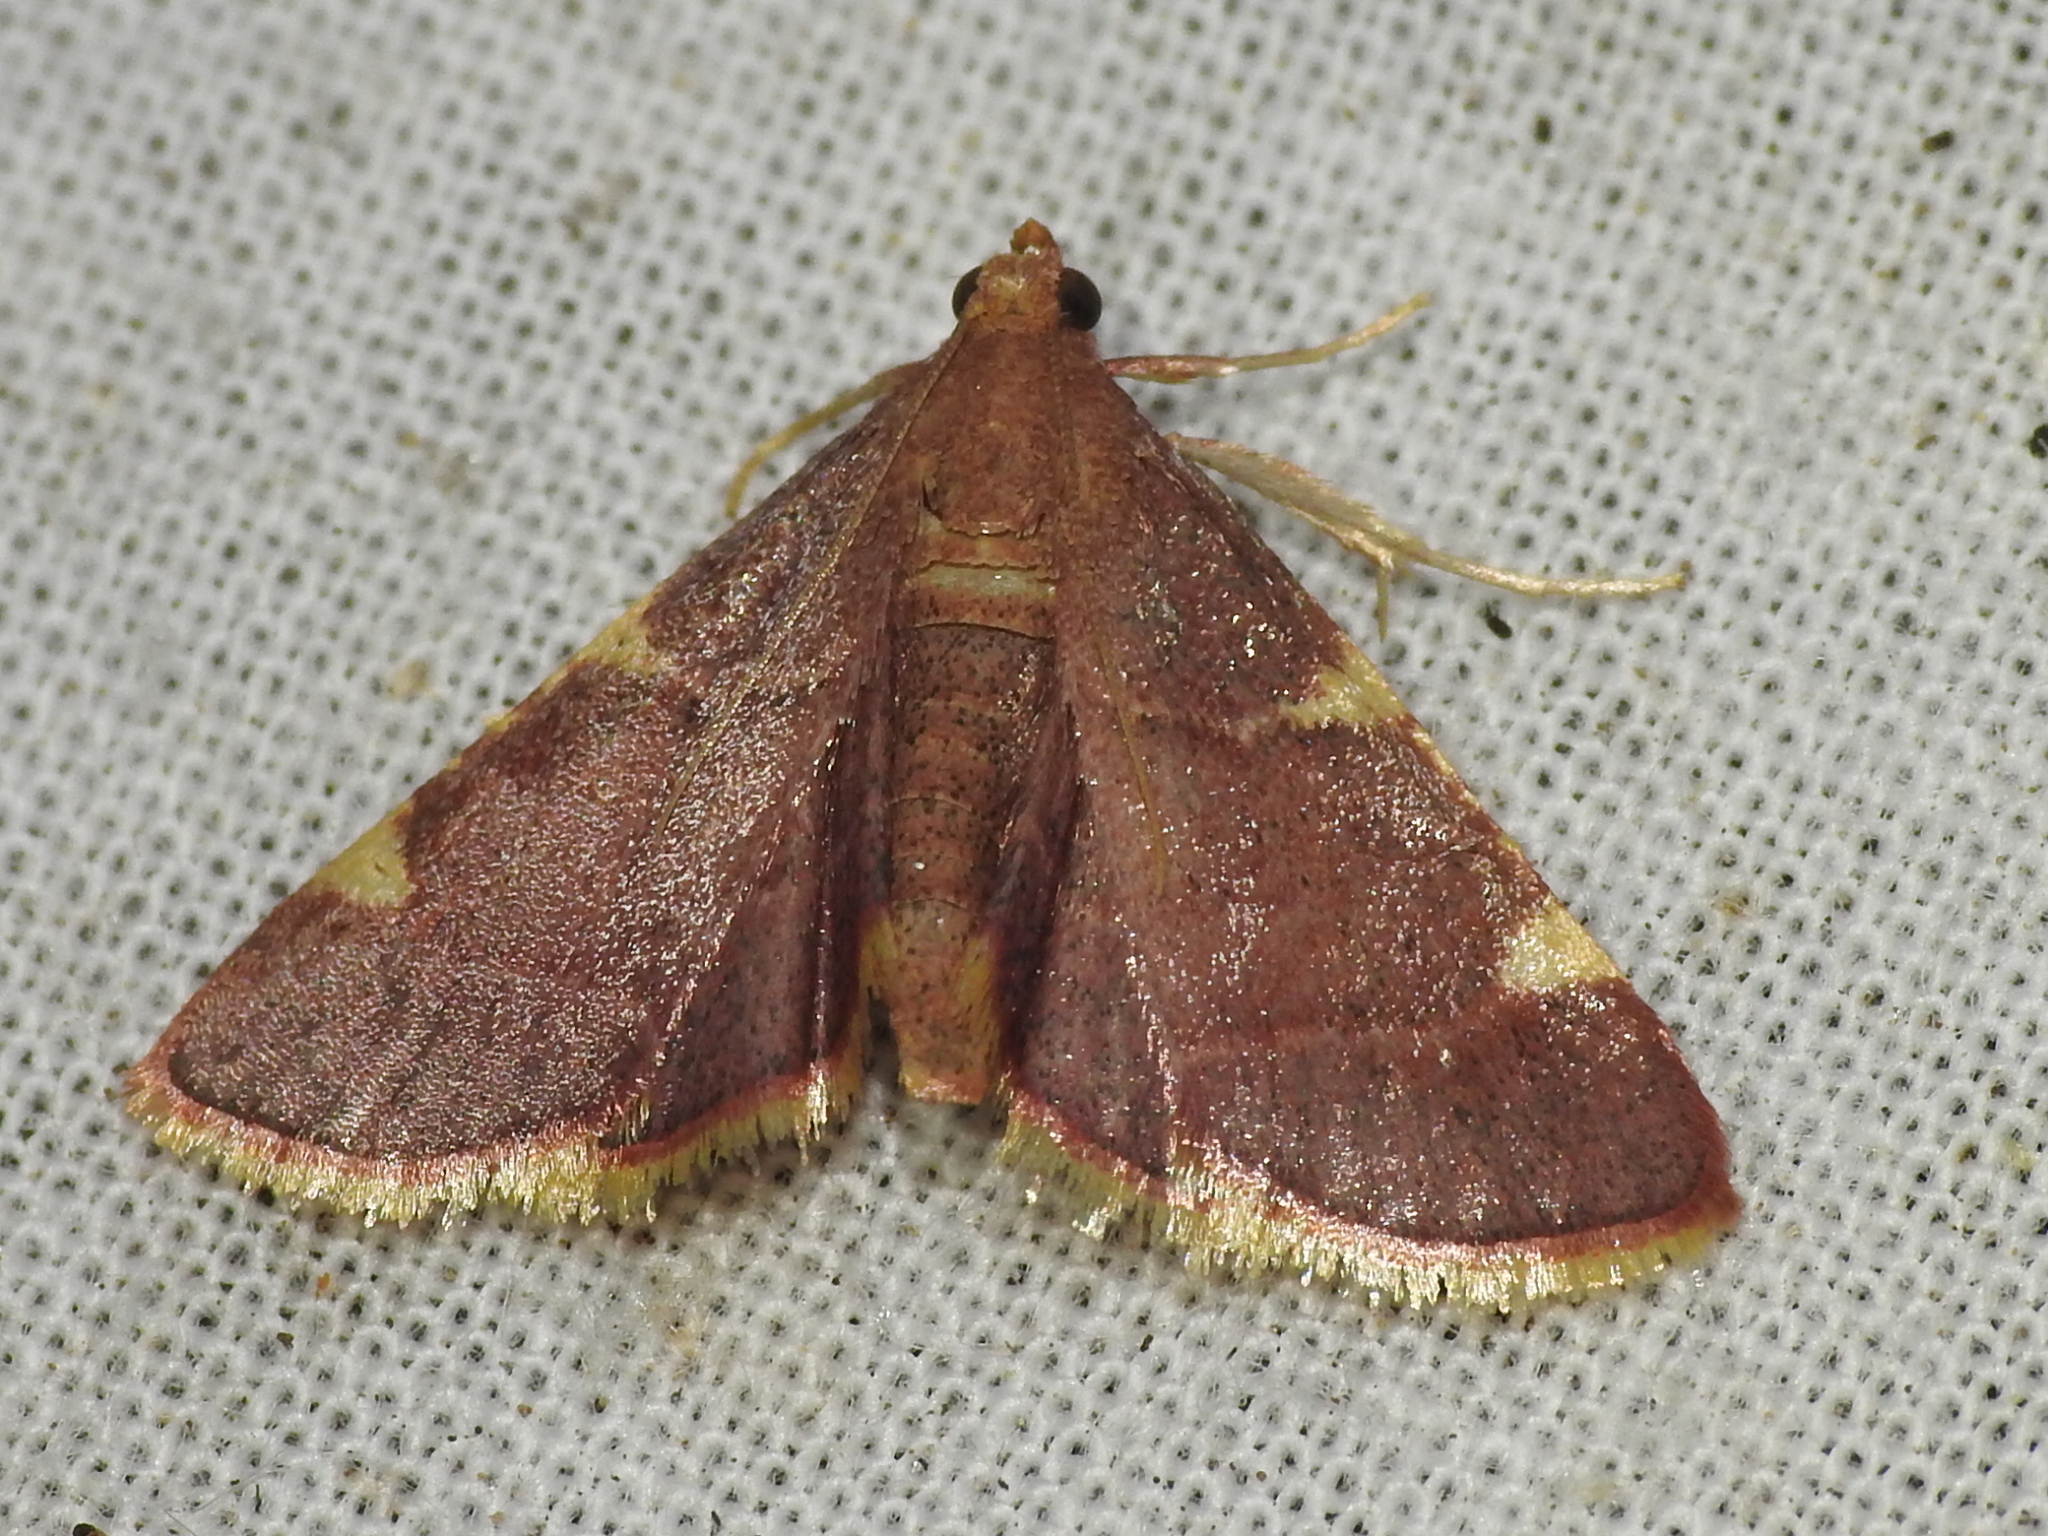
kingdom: Animalia
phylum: Arthropoda
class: Insecta
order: Lepidoptera
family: Pyralidae
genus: Hypsopygia
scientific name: Hypsopygia olinalis
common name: Yellow-fringed dolichomia moth
